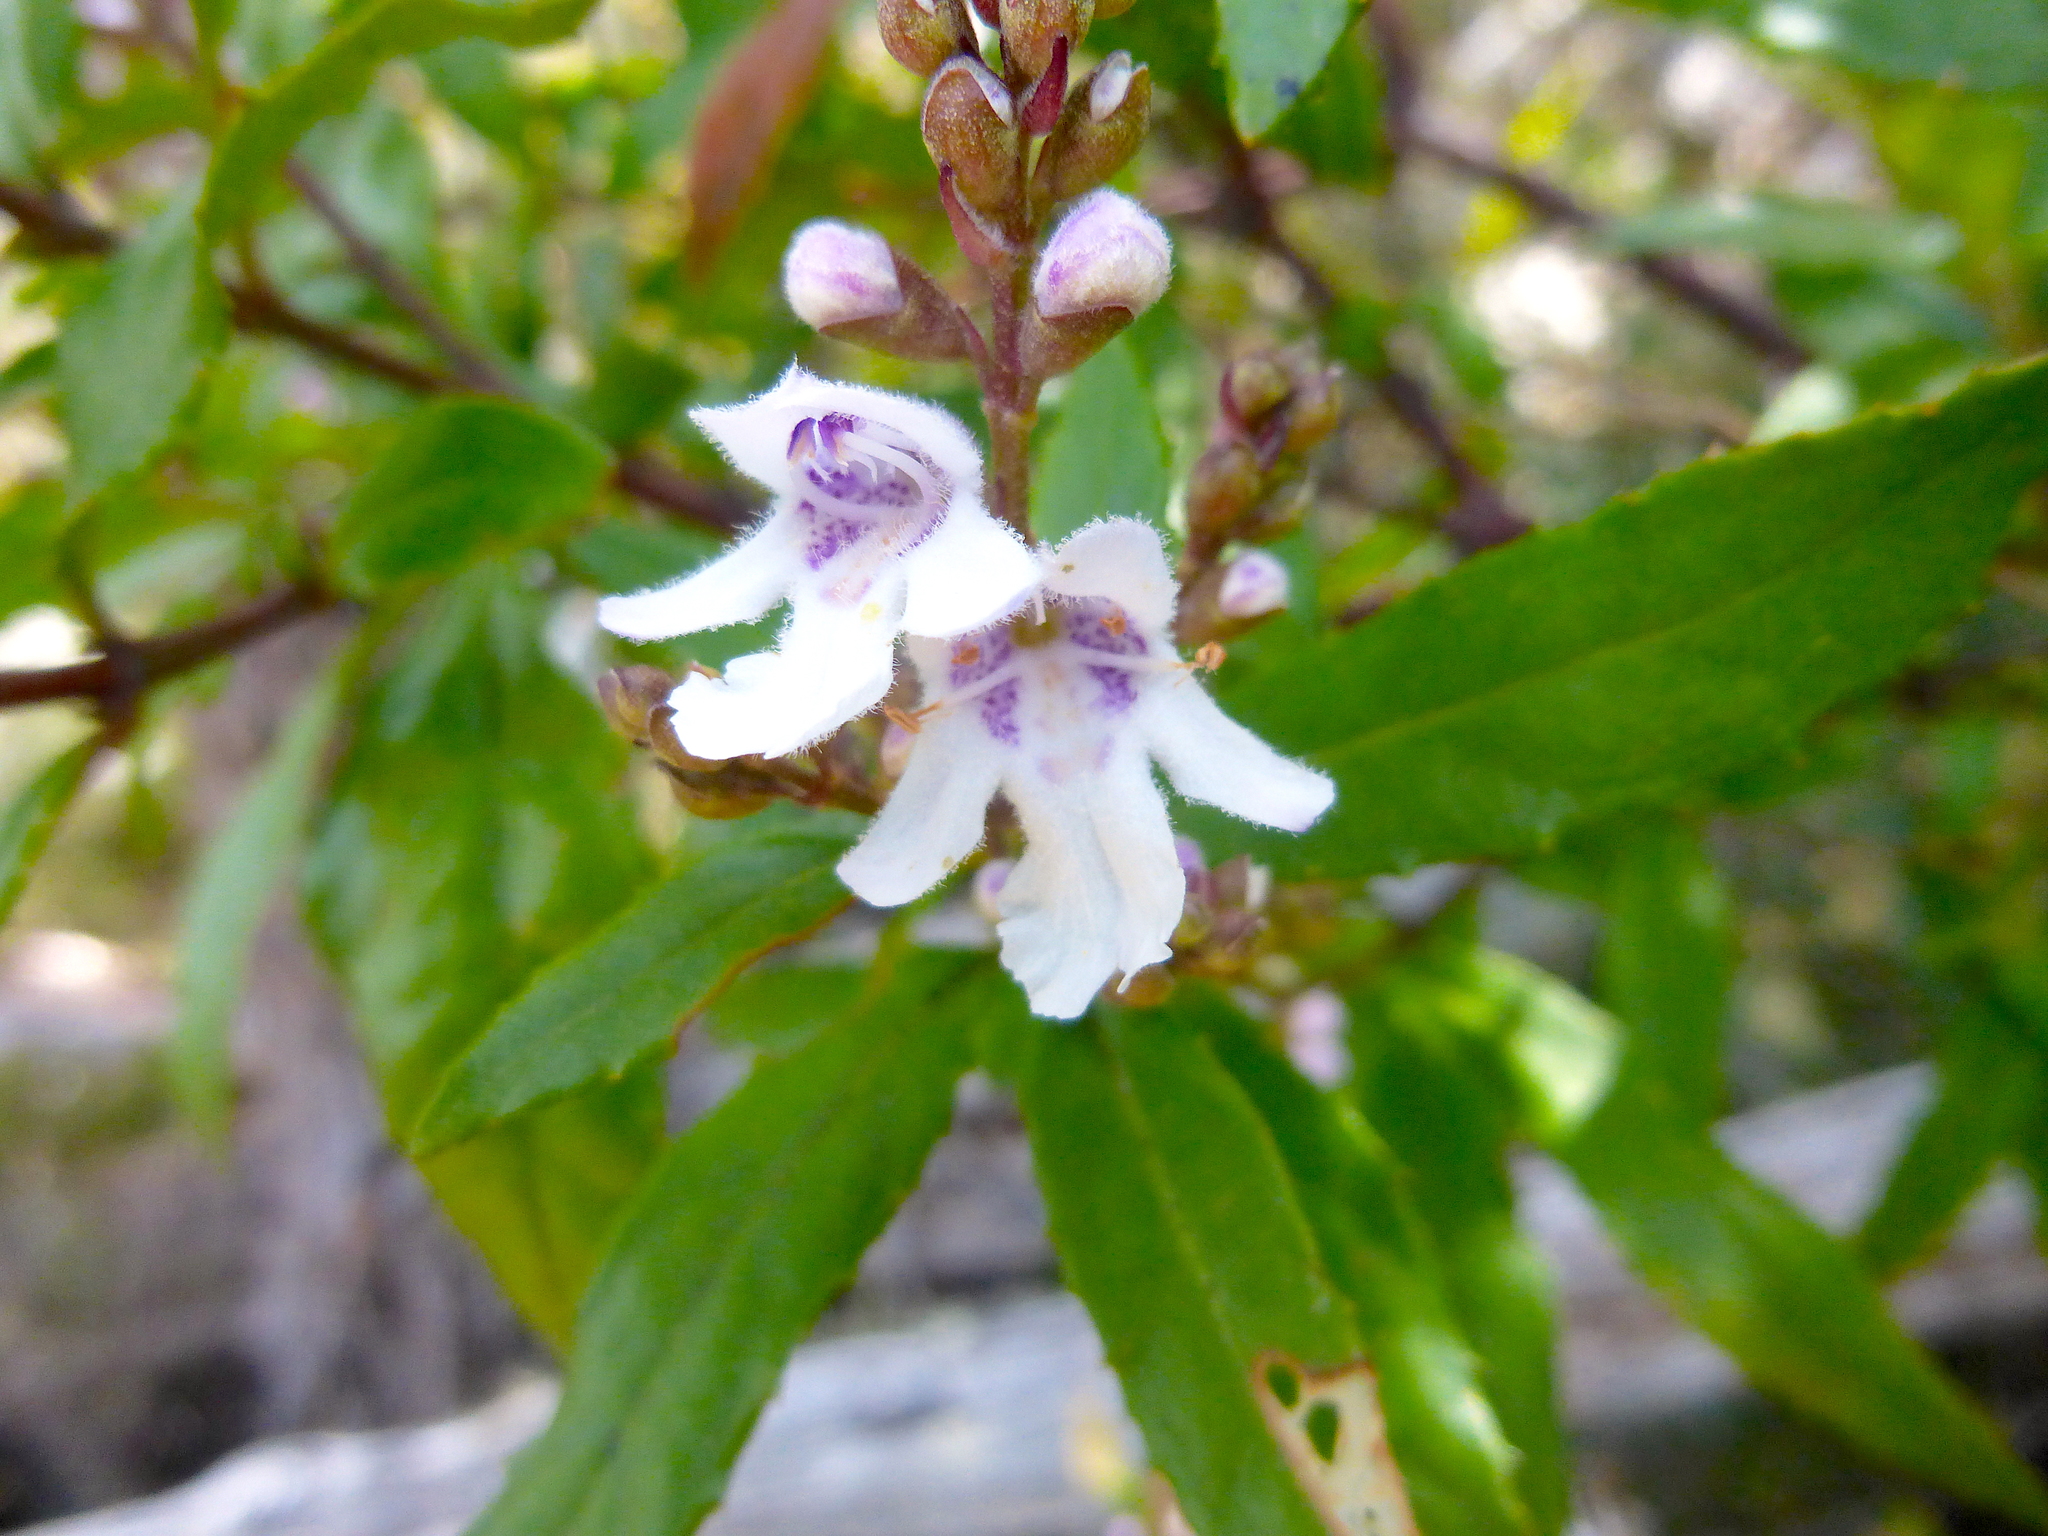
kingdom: Plantae
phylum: Tracheophyta
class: Magnoliopsida
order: Lamiales
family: Lamiaceae
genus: Prostanthera
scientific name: Prostanthera lasianthos
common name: Mountain-lilac
